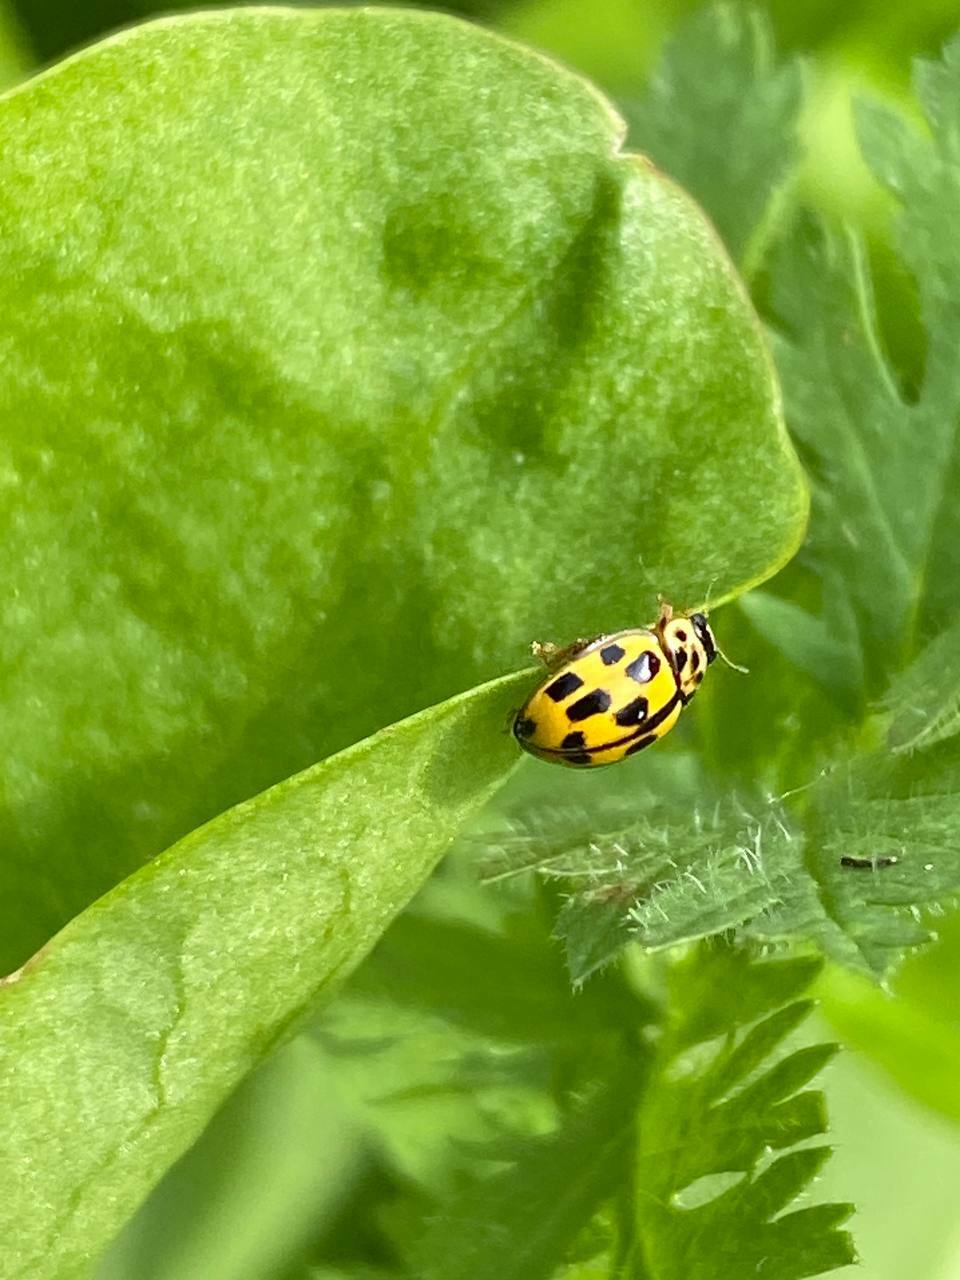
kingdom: Animalia
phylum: Arthropoda
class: Insecta
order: Coleoptera
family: Coccinellidae
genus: Propylaea
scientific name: Propylaea quatuordecimpunctata
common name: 14-spotted ladybird beetle
